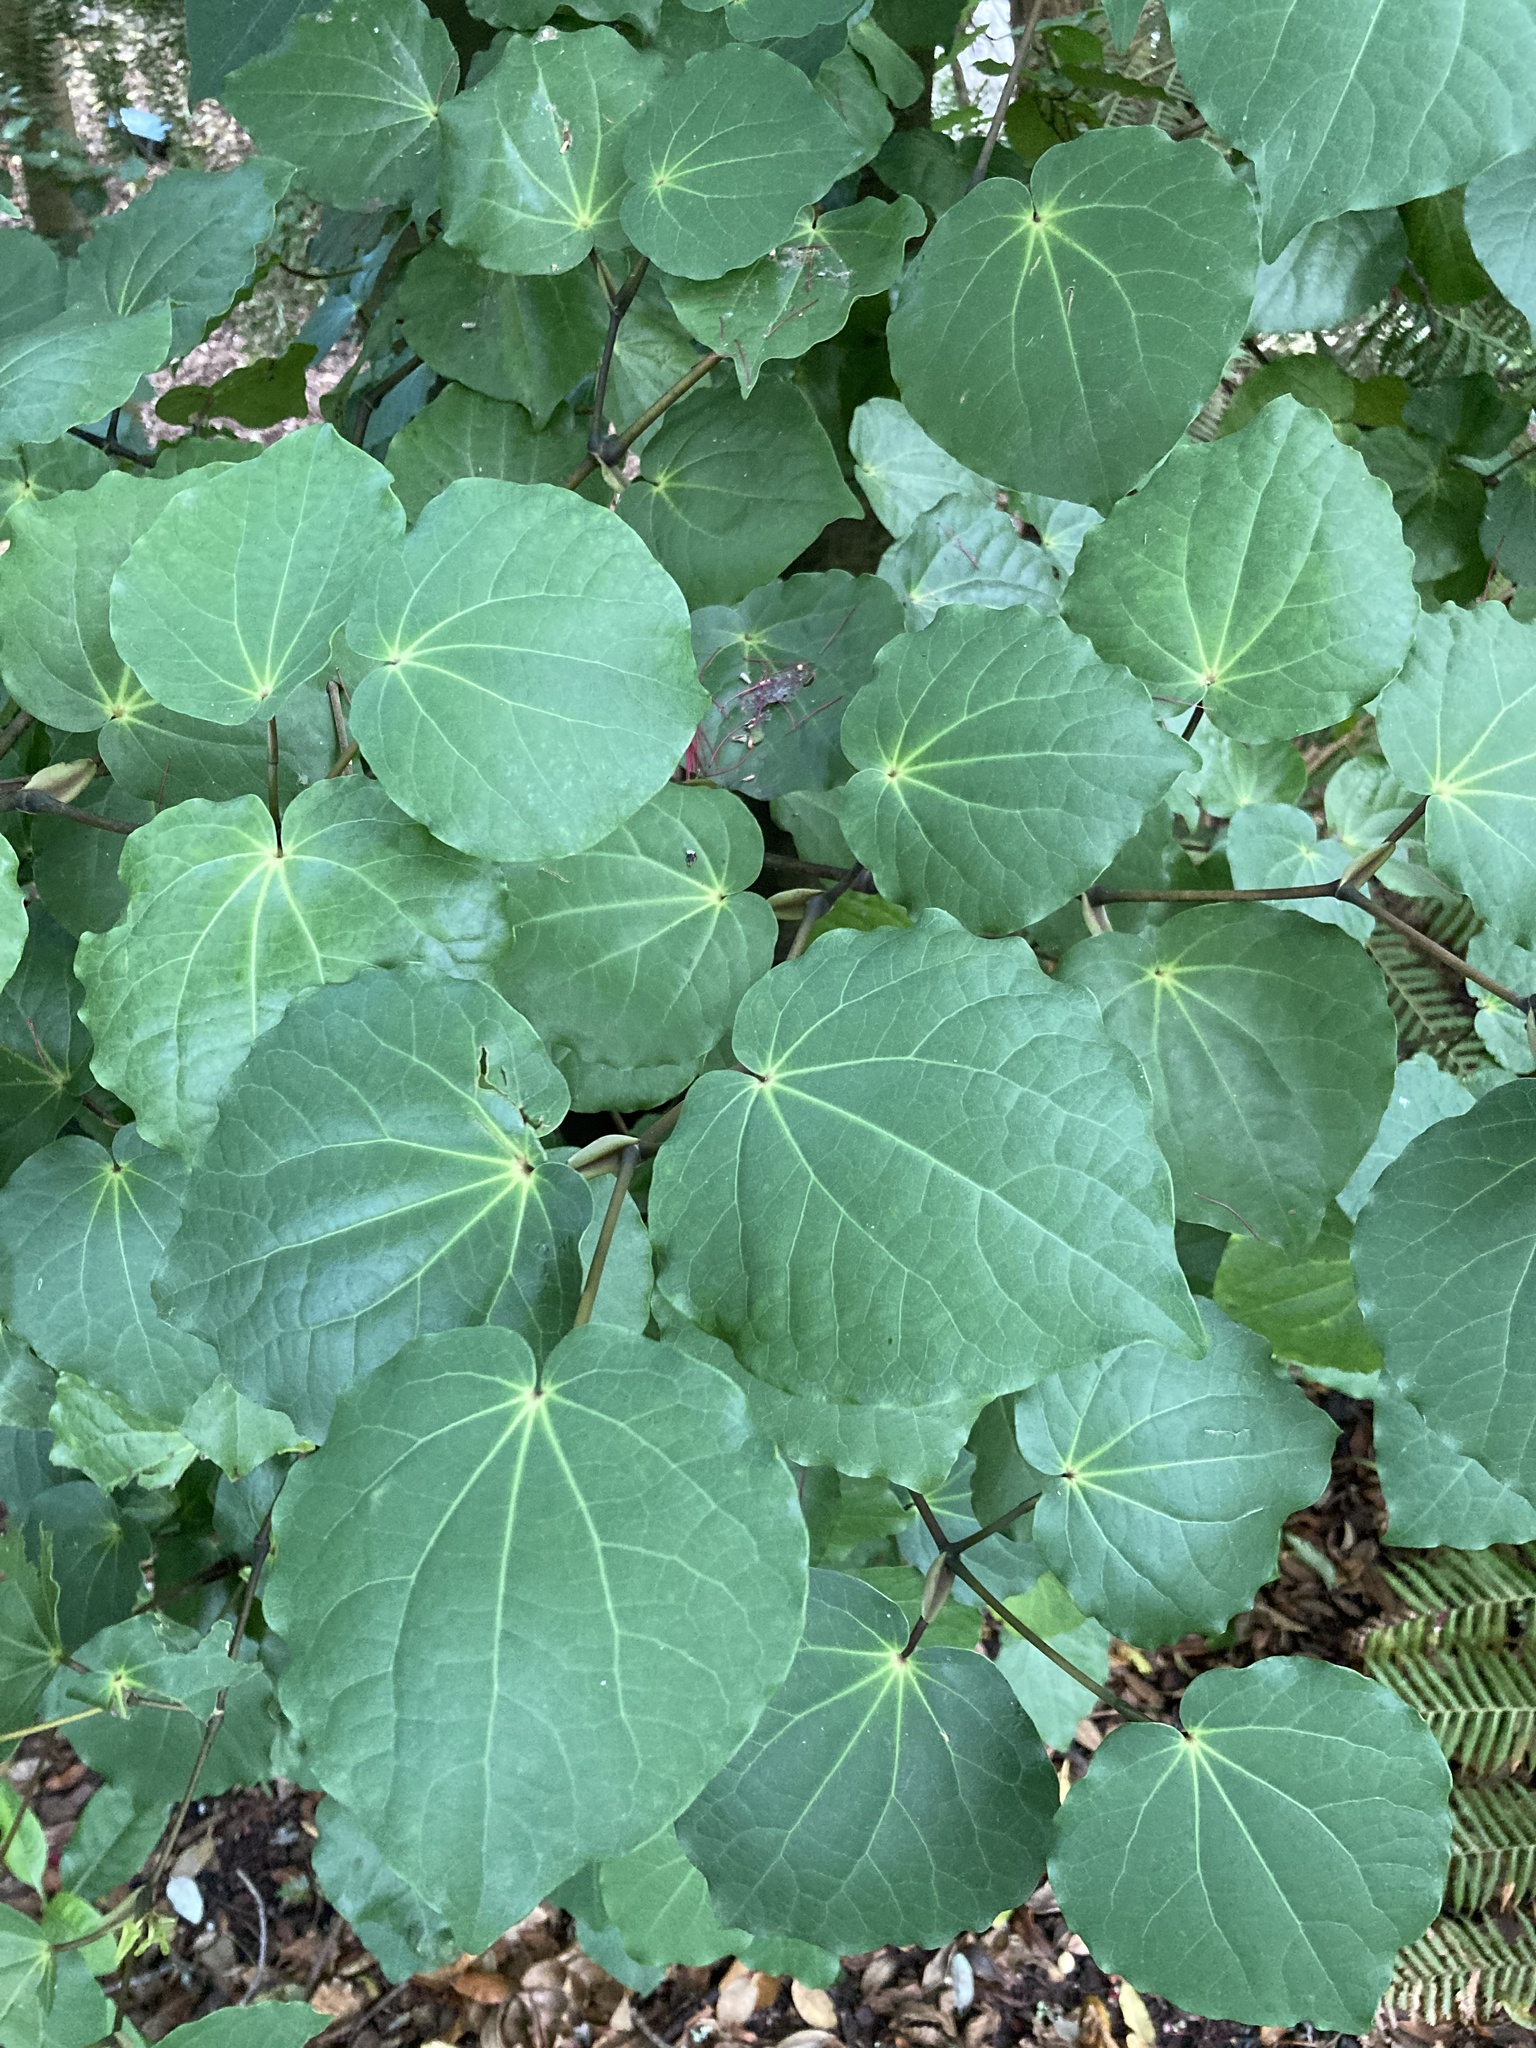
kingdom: Plantae
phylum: Tracheophyta
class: Magnoliopsida
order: Piperales
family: Piperaceae
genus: Macropiper
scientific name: Macropiper excelsum
